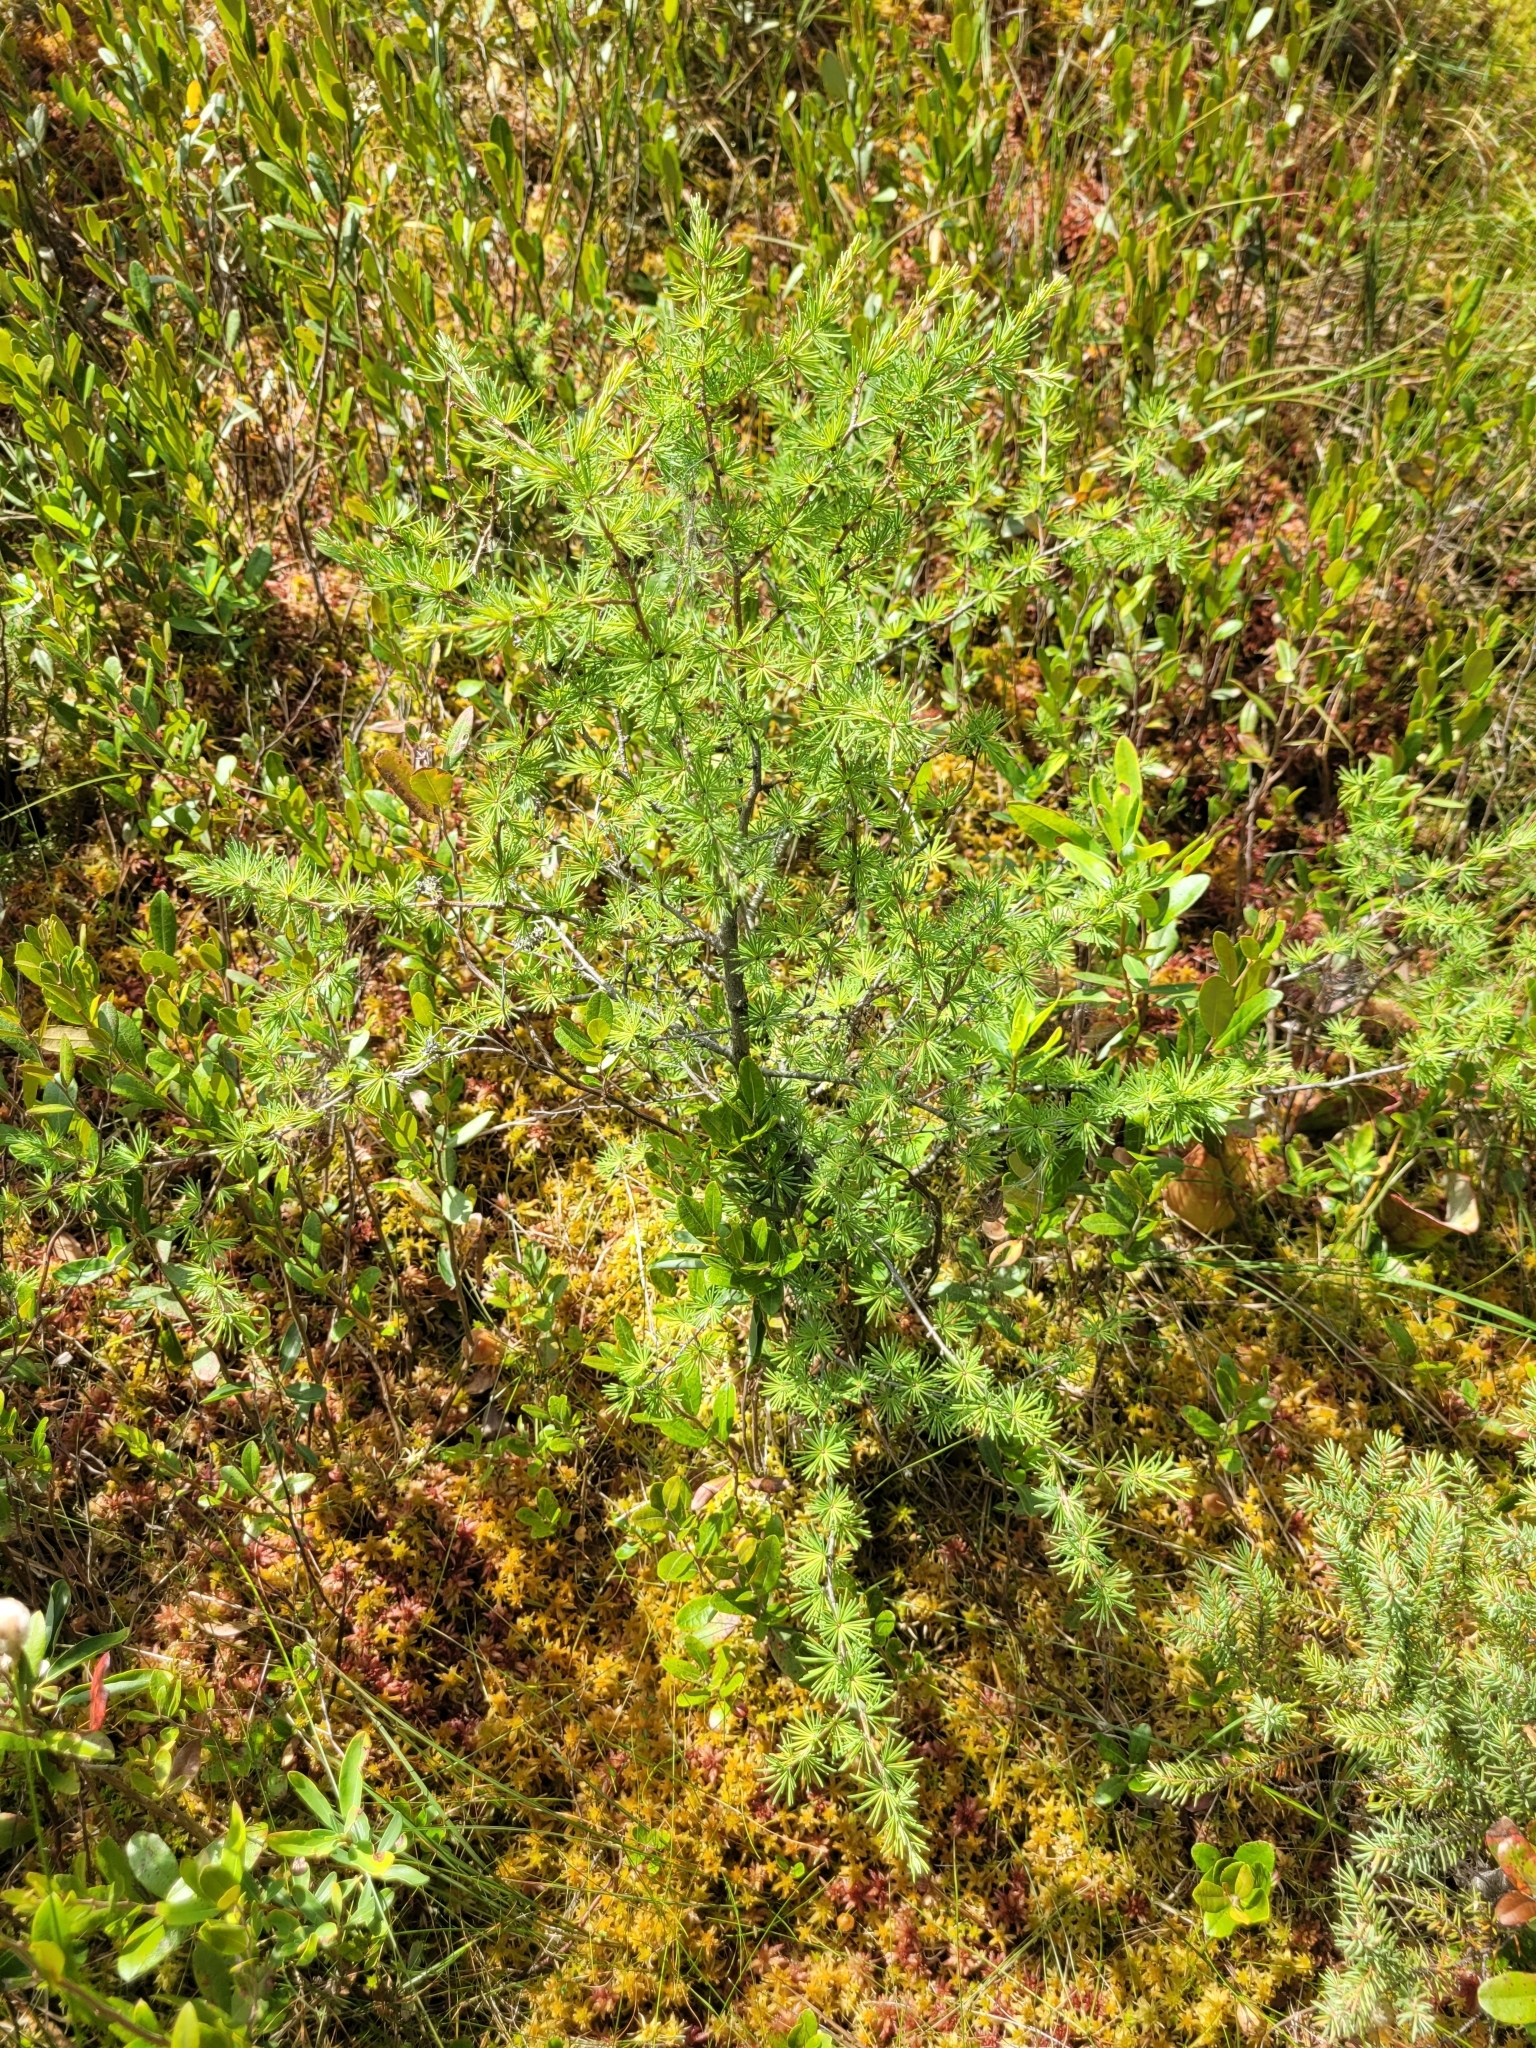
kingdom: Plantae
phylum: Tracheophyta
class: Pinopsida
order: Pinales
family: Pinaceae
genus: Larix
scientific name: Larix laricina
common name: American larch
